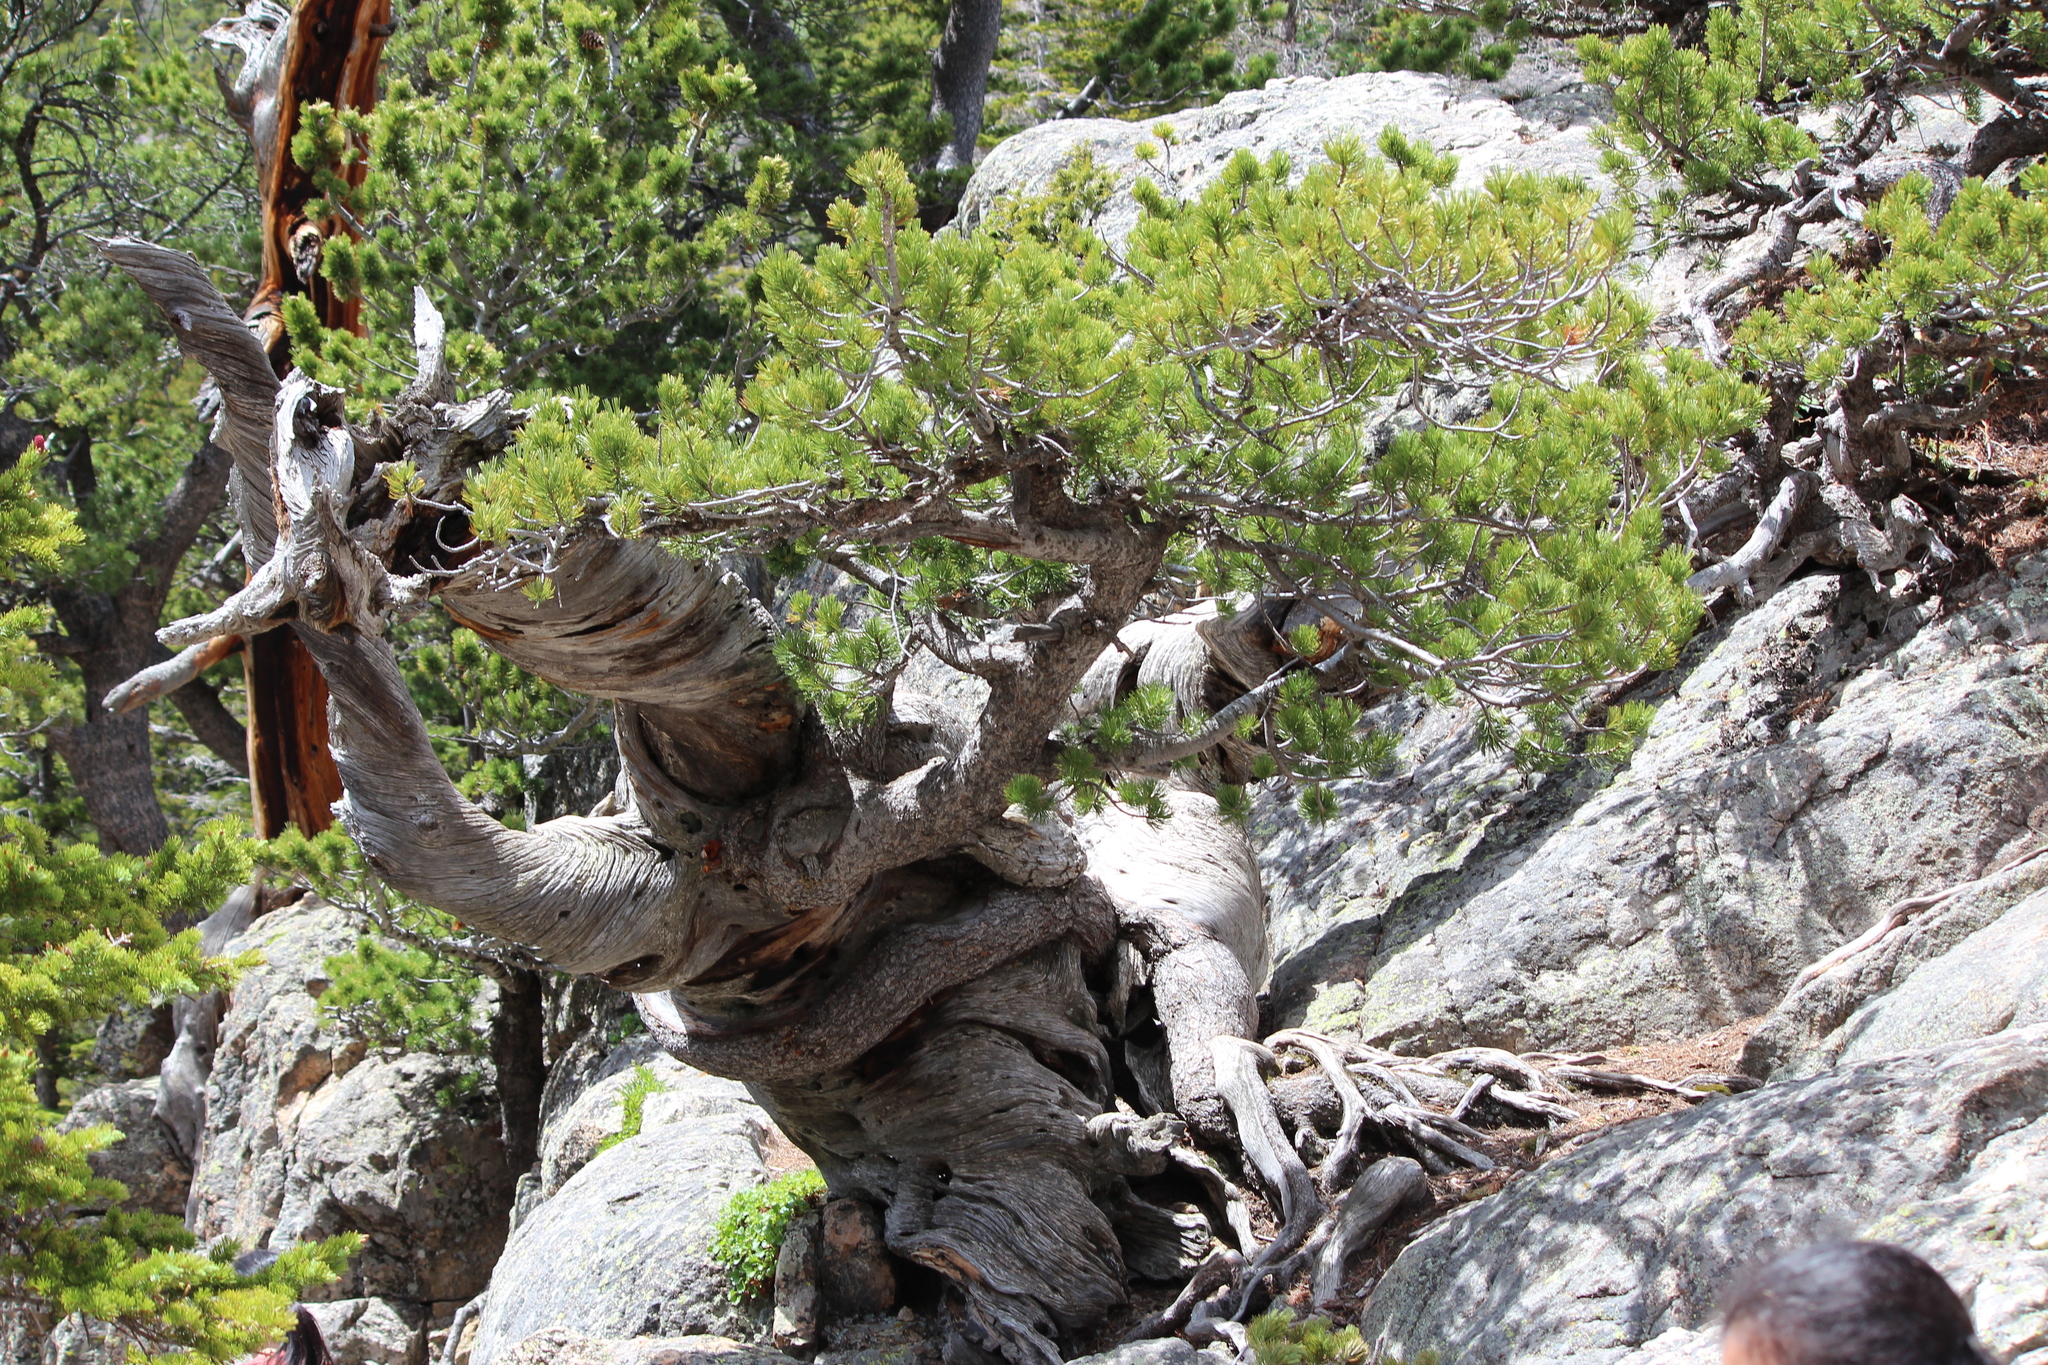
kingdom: Plantae
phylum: Tracheophyta
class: Pinopsida
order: Pinales
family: Pinaceae
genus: Pinus
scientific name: Pinus flexilis
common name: Limber pine
